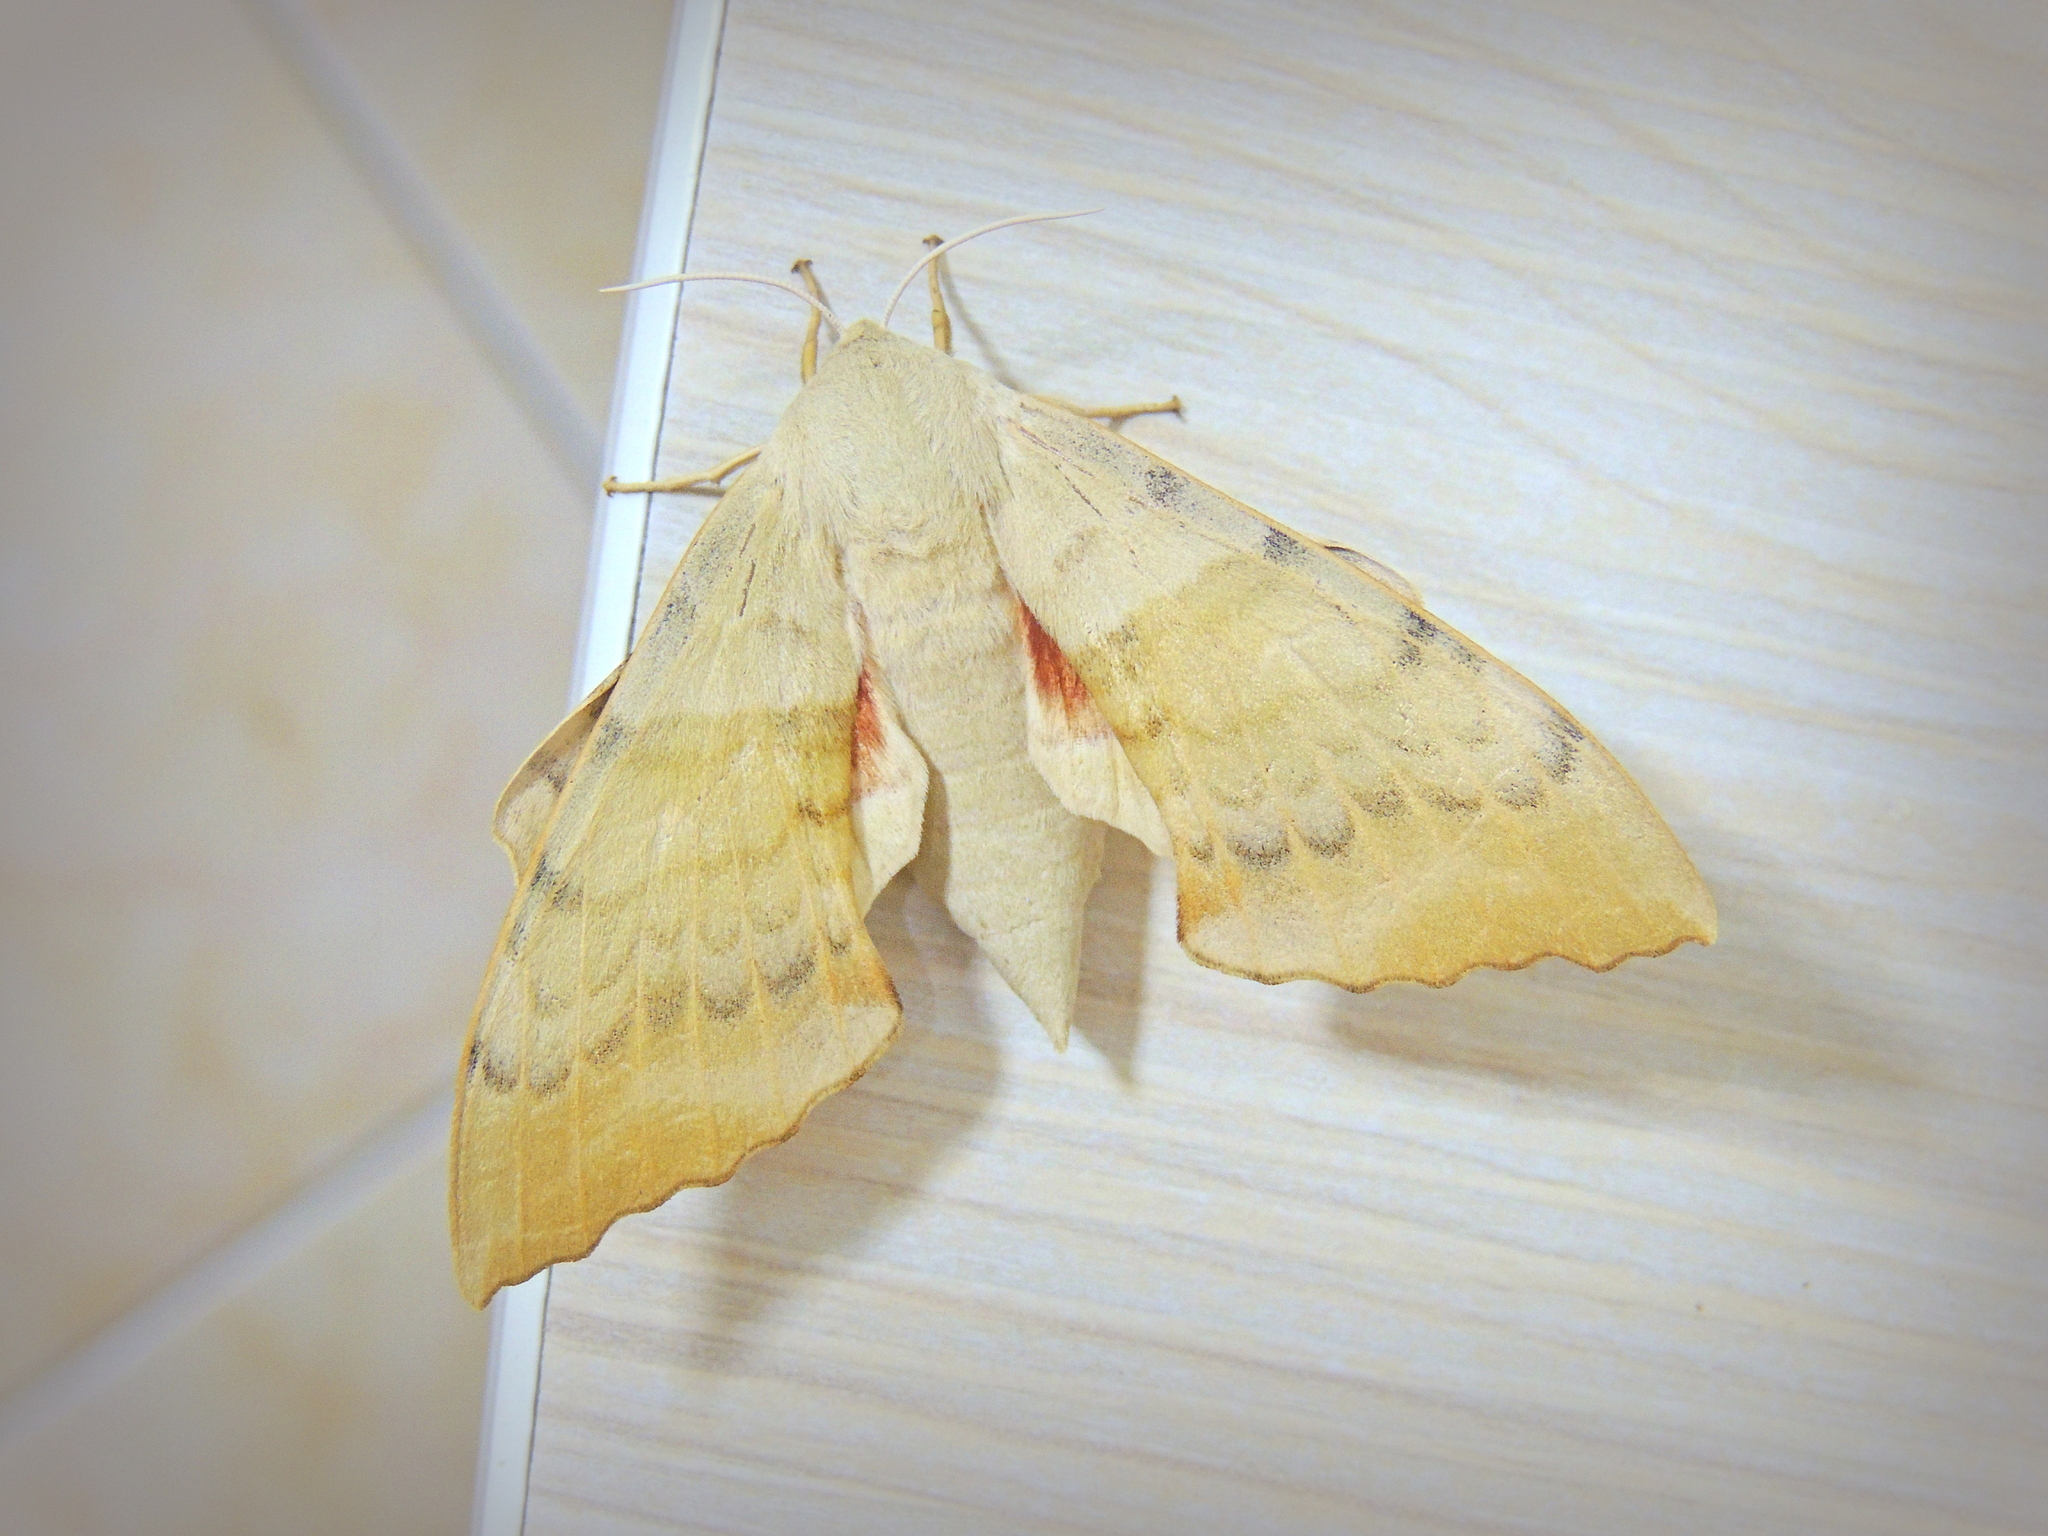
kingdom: Animalia
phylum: Arthropoda
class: Insecta
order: Lepidoptera
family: Sphingidae
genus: Laothoe
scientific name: Laothoe
